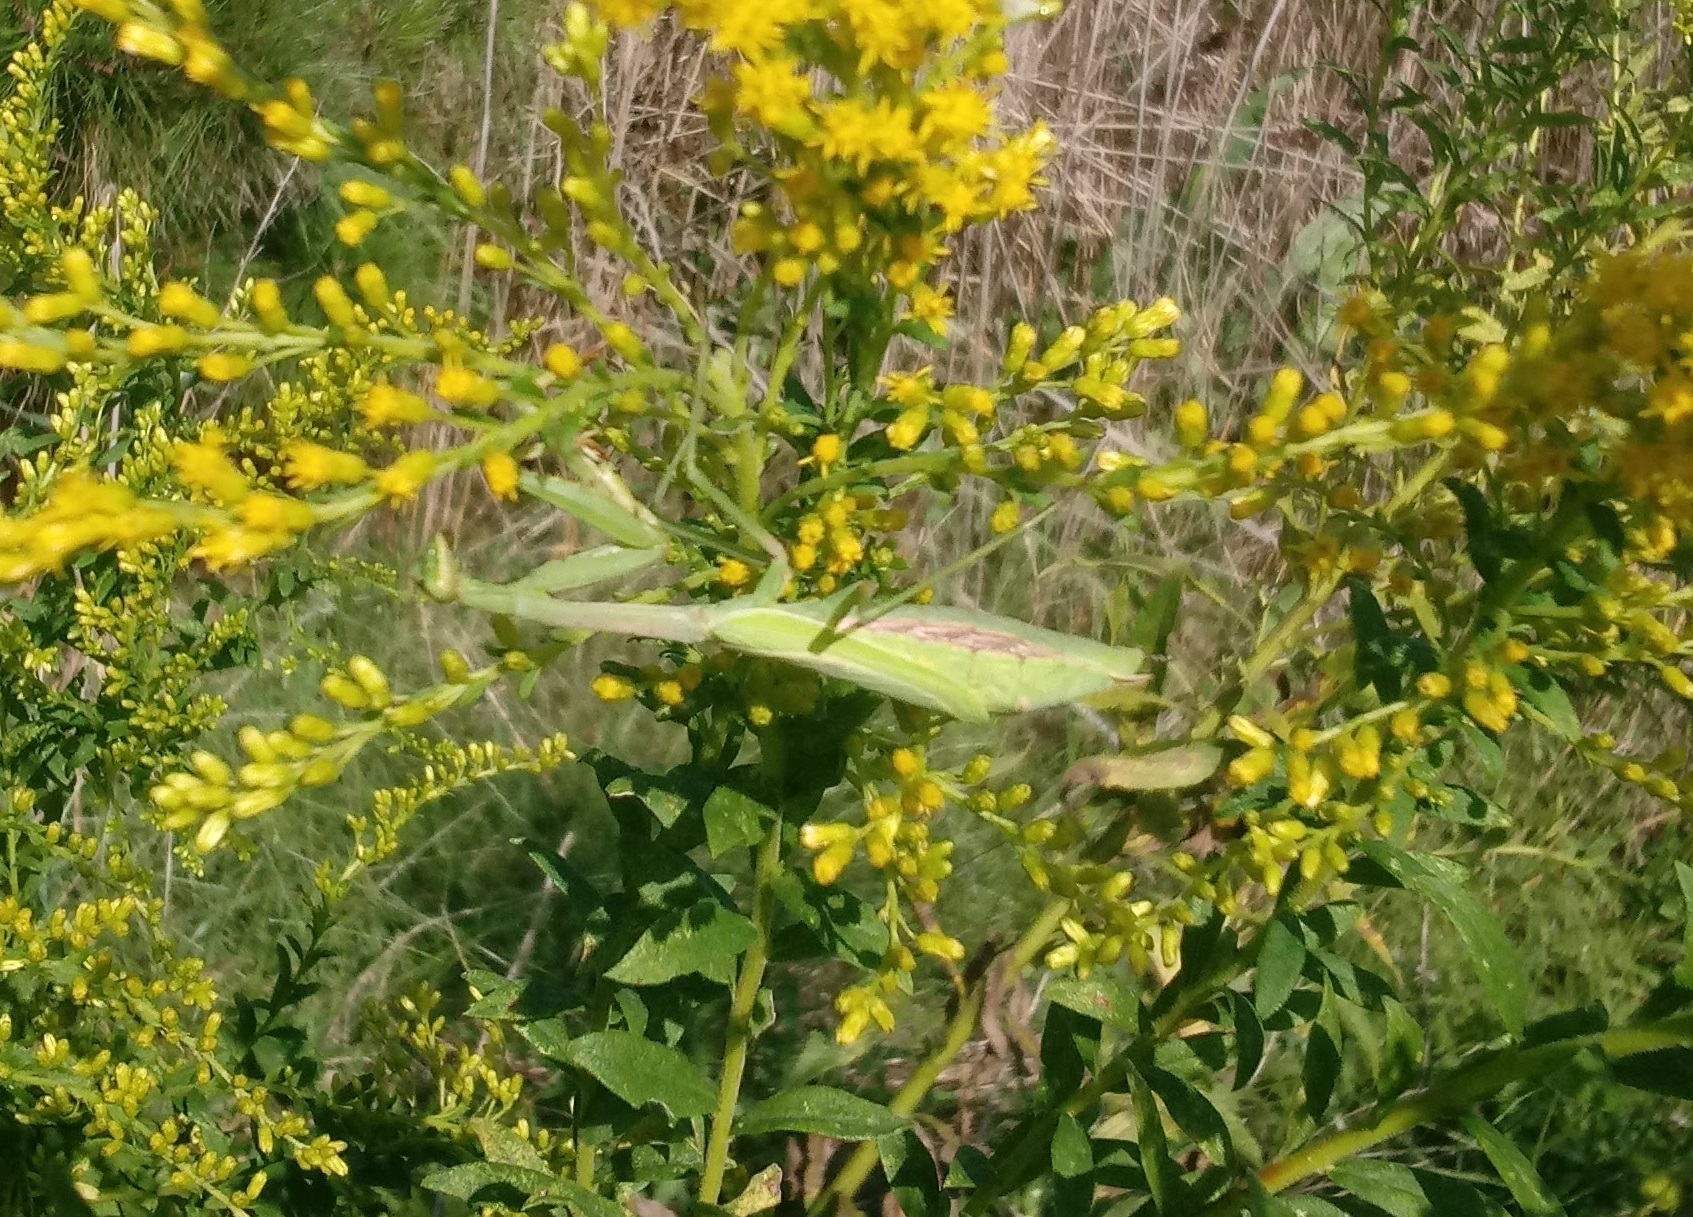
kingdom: Animalia
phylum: Arthropoda
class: Insecta
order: Mantodea
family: Mantidae
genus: Stagmomantis
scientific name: Stagmomantis carolina
